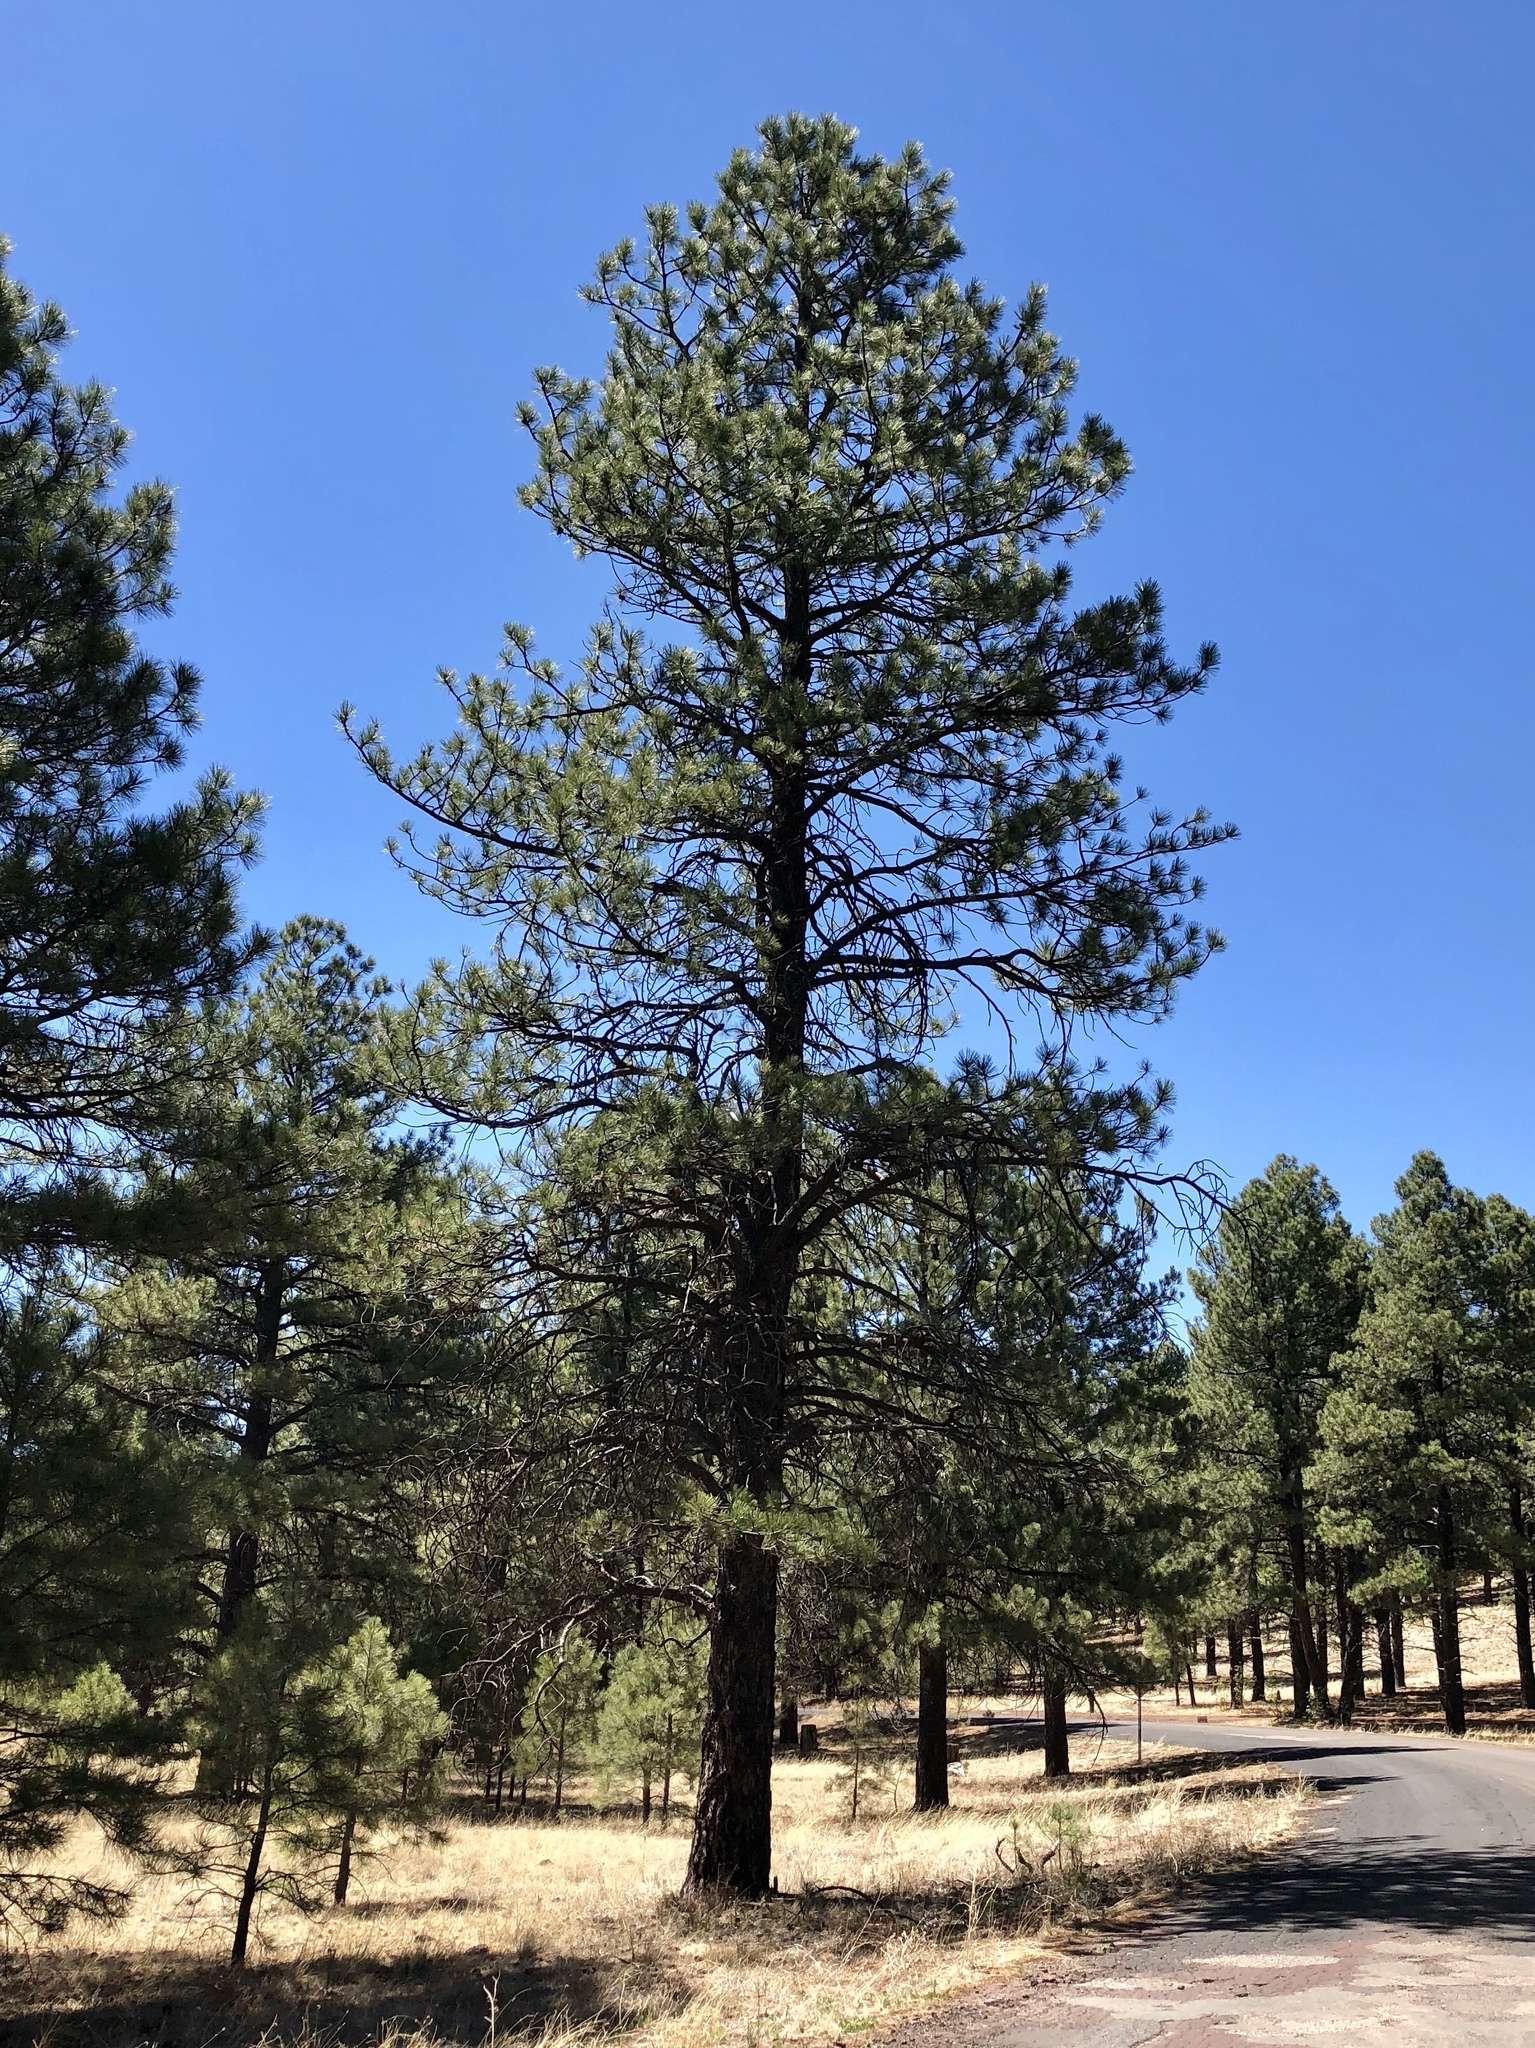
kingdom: Plantae
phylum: Tracheophyta
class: Pinopsida
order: Pinales
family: Pinaceae
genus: Pinus
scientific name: Pinus ponderosa
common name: Western yellow-pine
